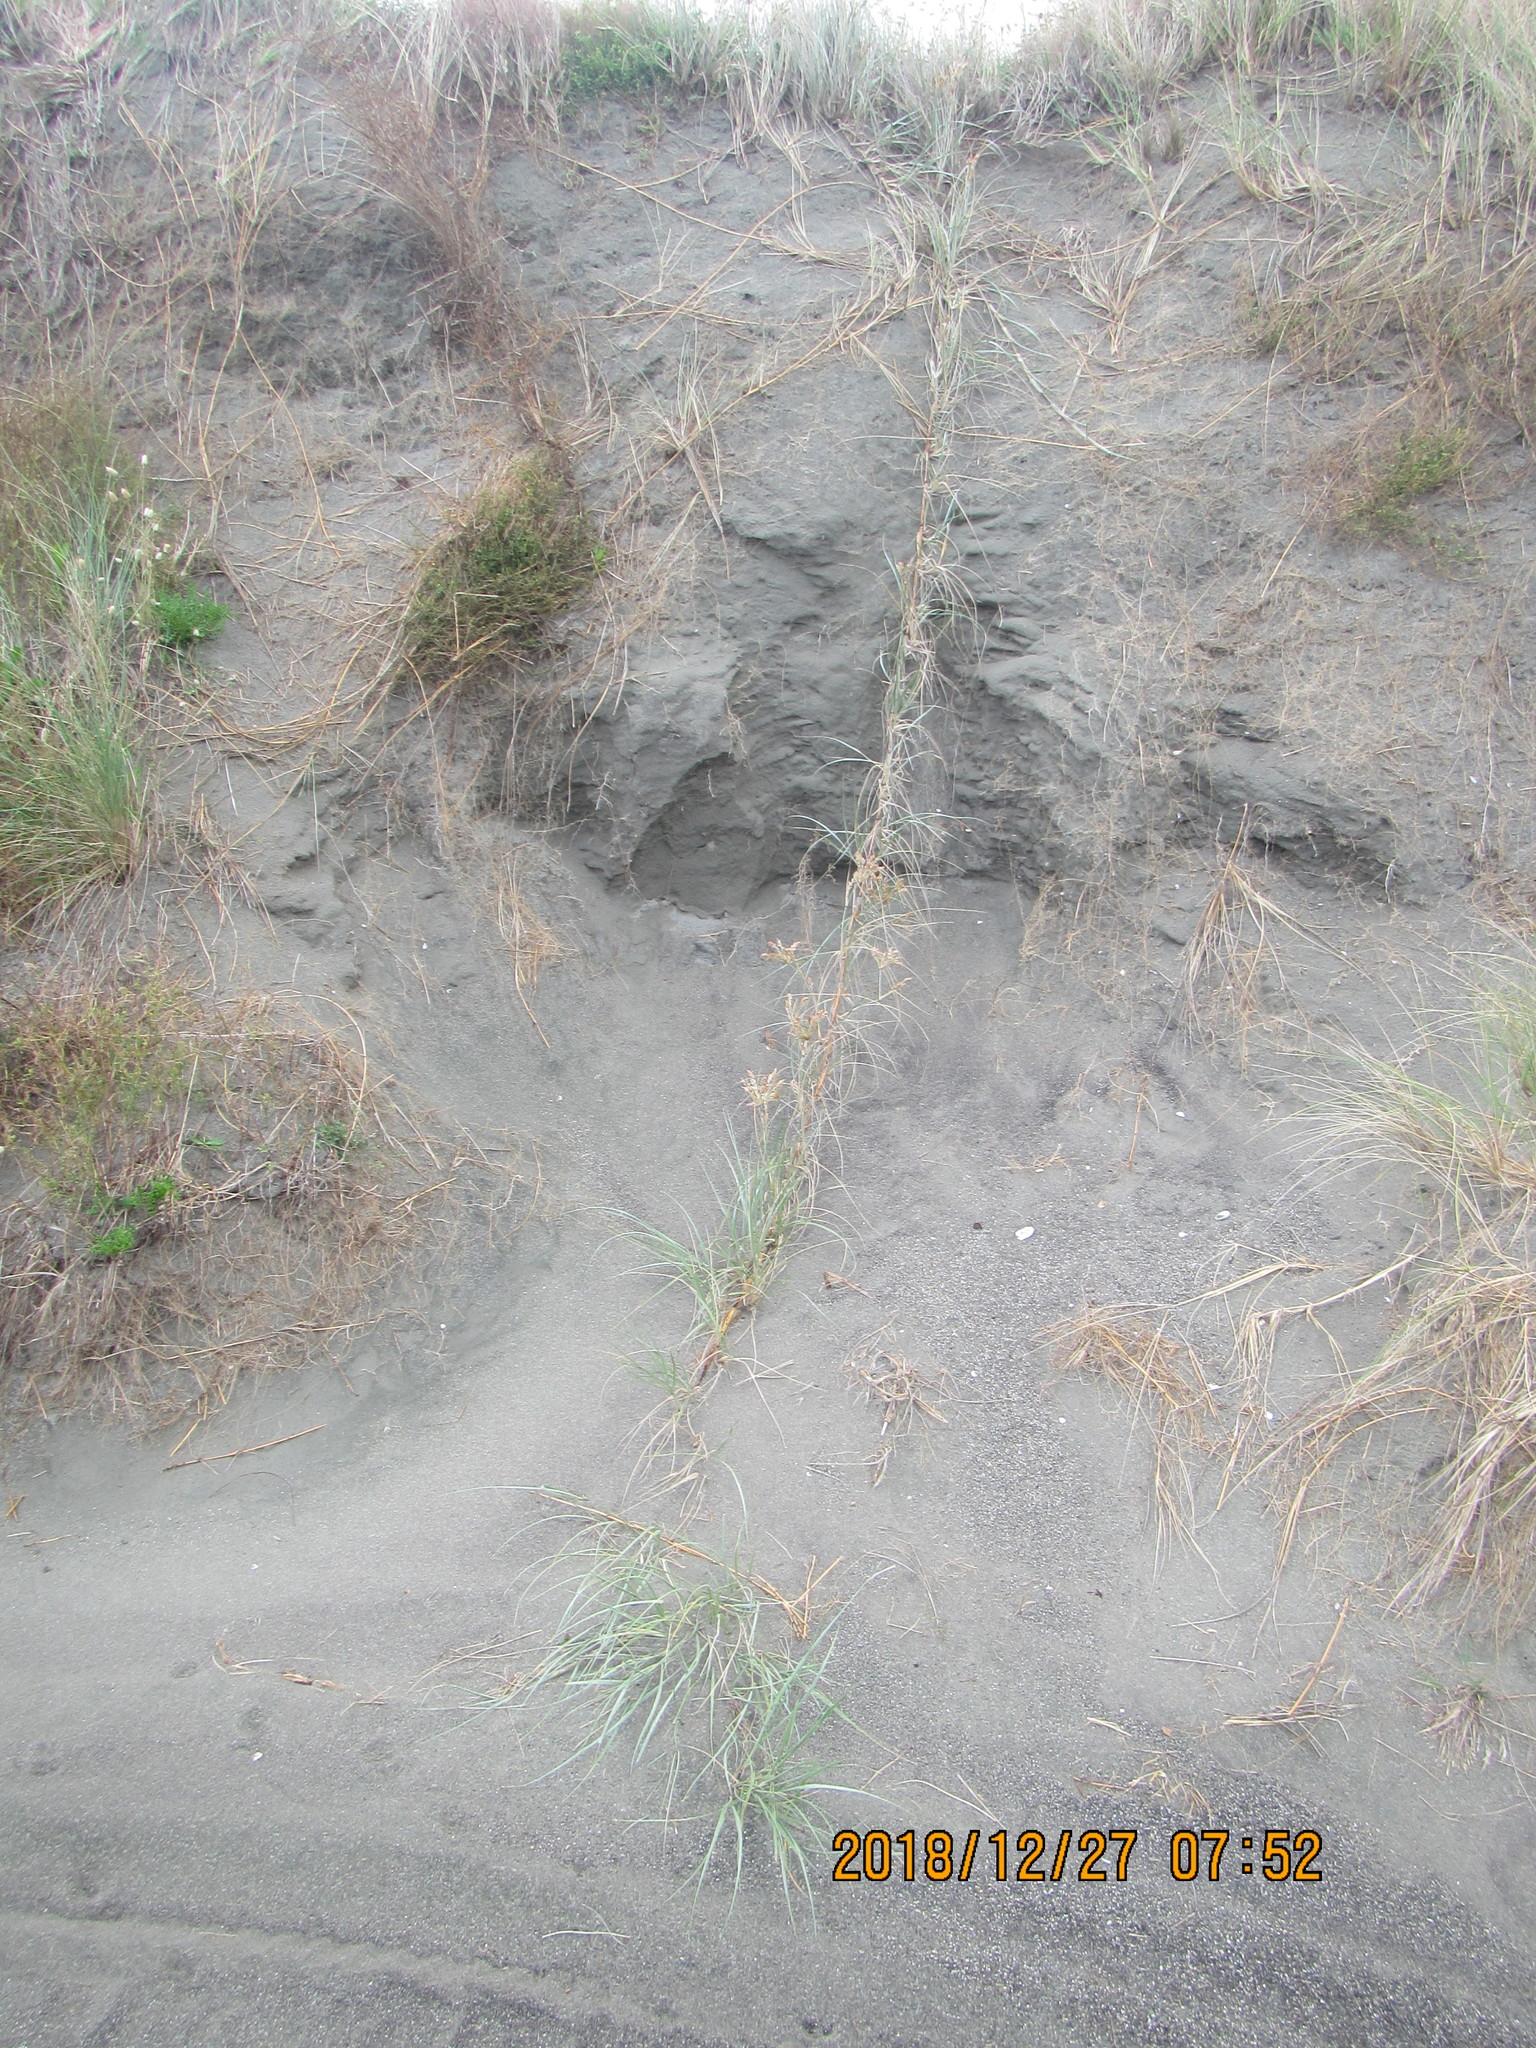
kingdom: Plantae
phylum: Tracheophyta
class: Liliopsida
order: Poales
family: Poaceae
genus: Spinifex
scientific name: Spinifex sericeus
